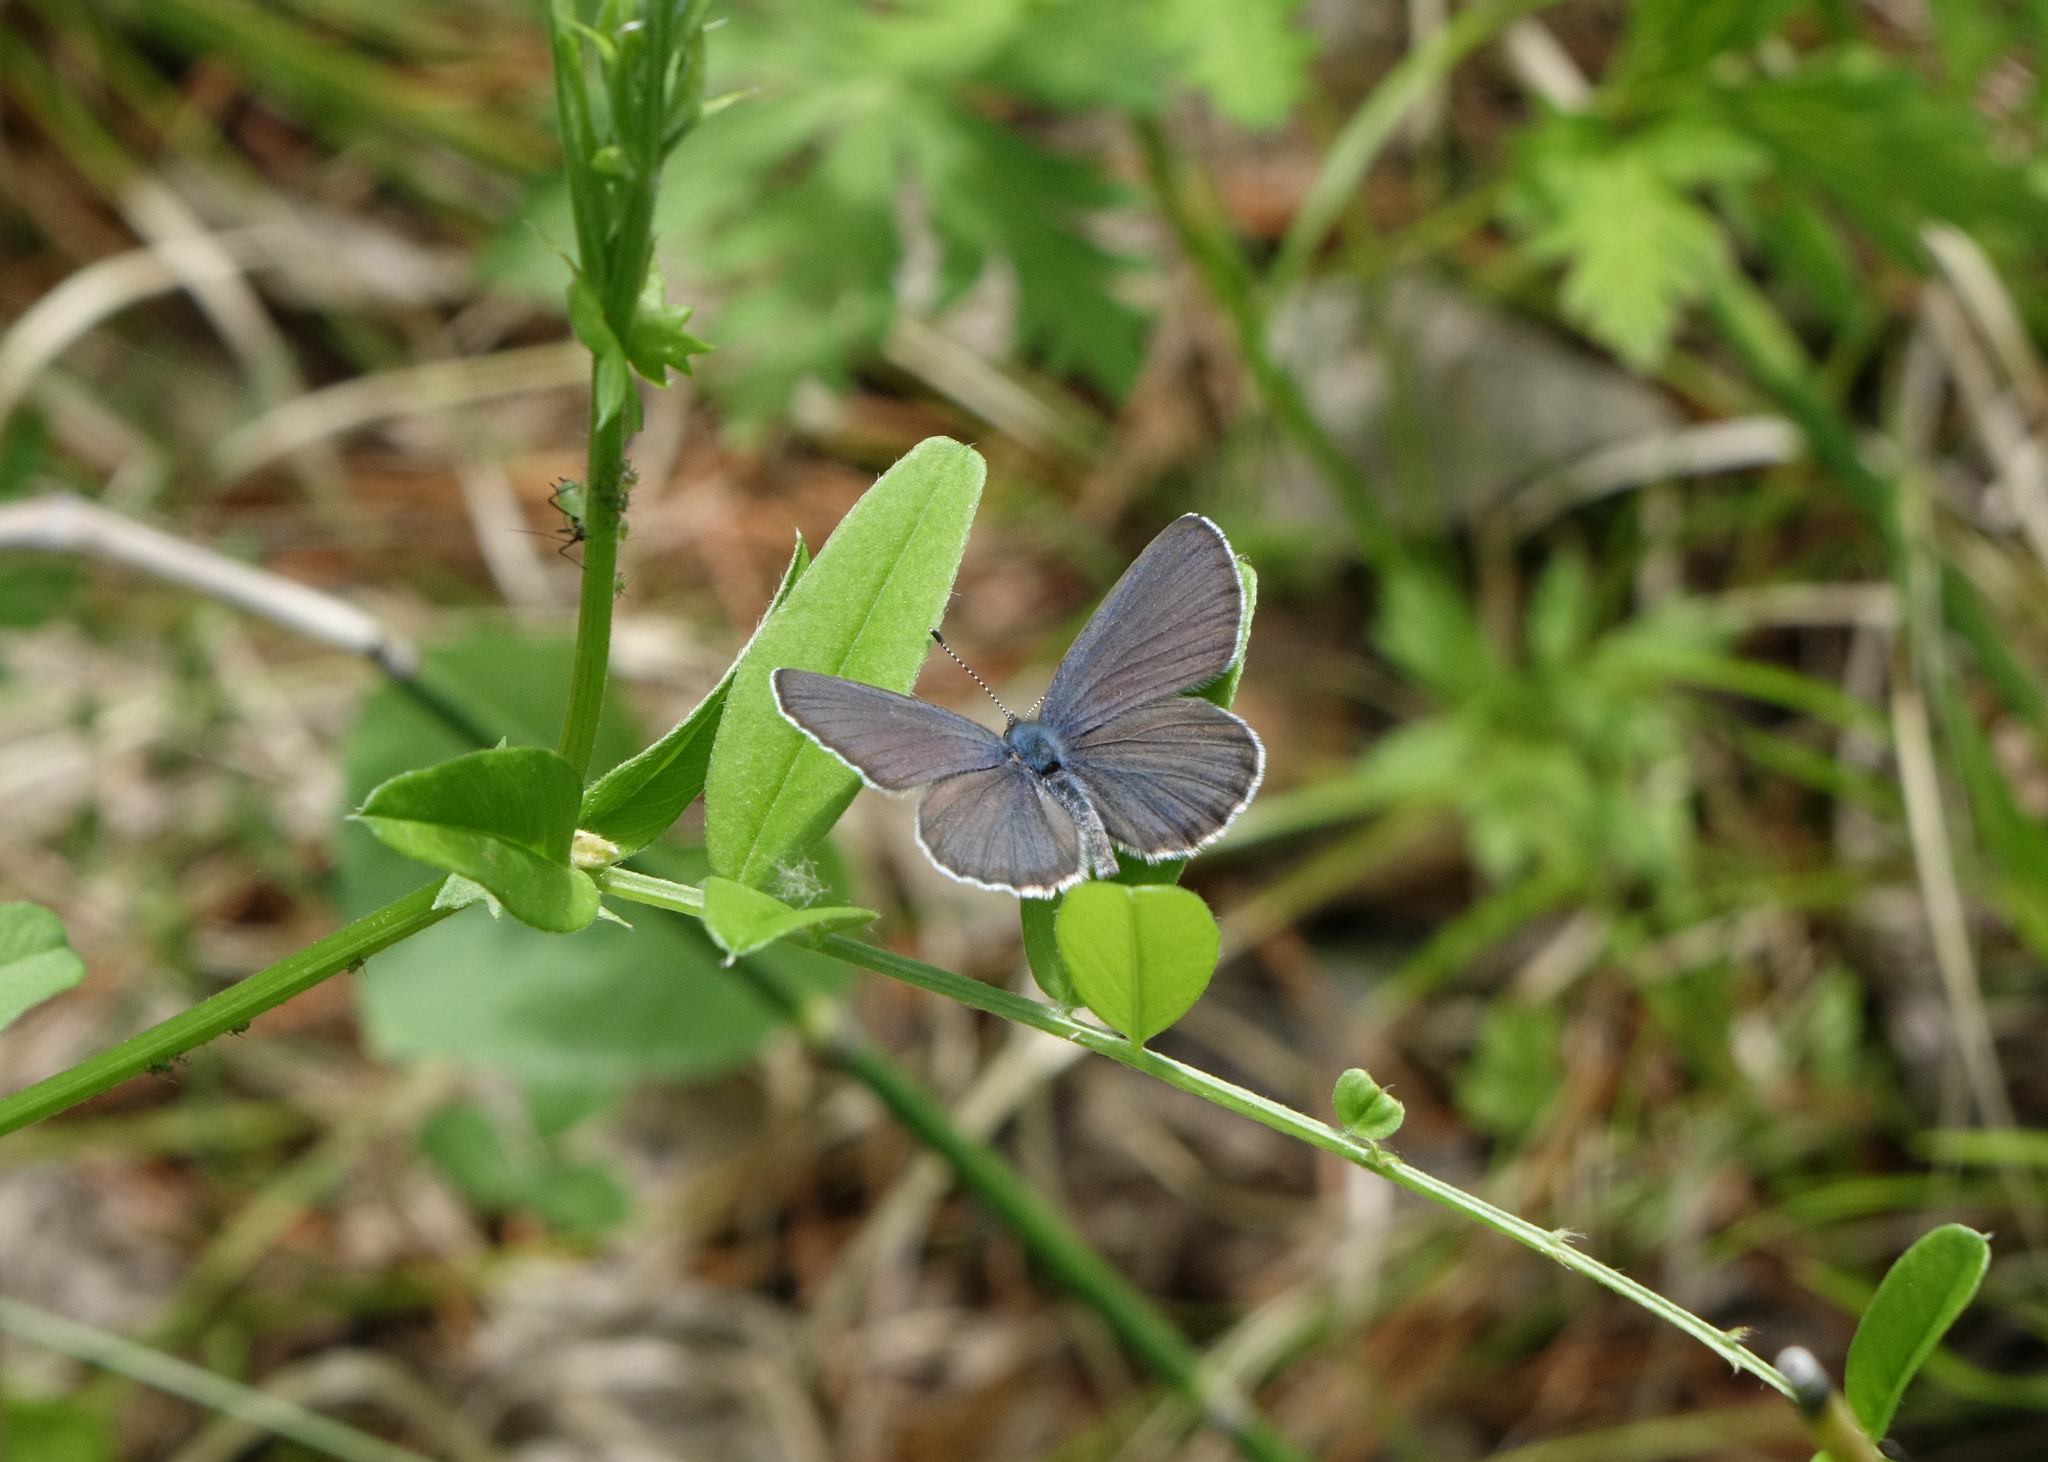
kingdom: Animalia
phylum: Arthropoda
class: Insecta
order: Lepidoptera
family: Lycaenidae
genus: Vacciniina
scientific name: Vacciniina optilete
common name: Cranberry blue
